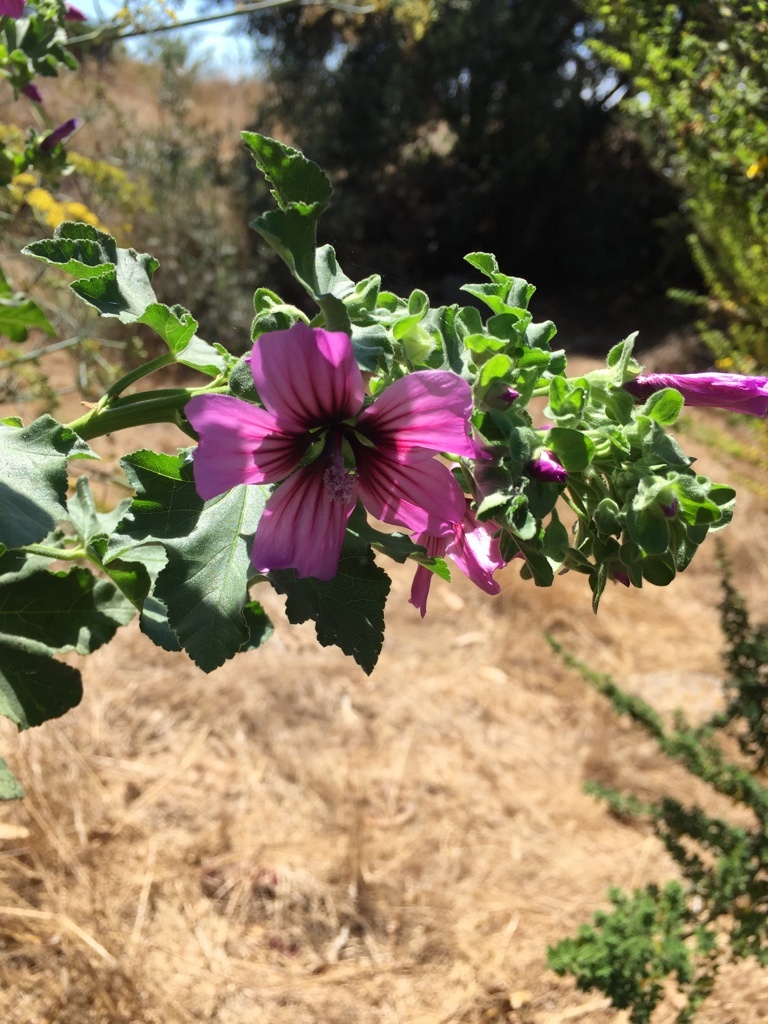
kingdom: Plantae
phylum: Tracheophyta
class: Magnoliopsida
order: Malvales
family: Malvaceae
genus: Malva
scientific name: Malva arborea
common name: Tree mallow
